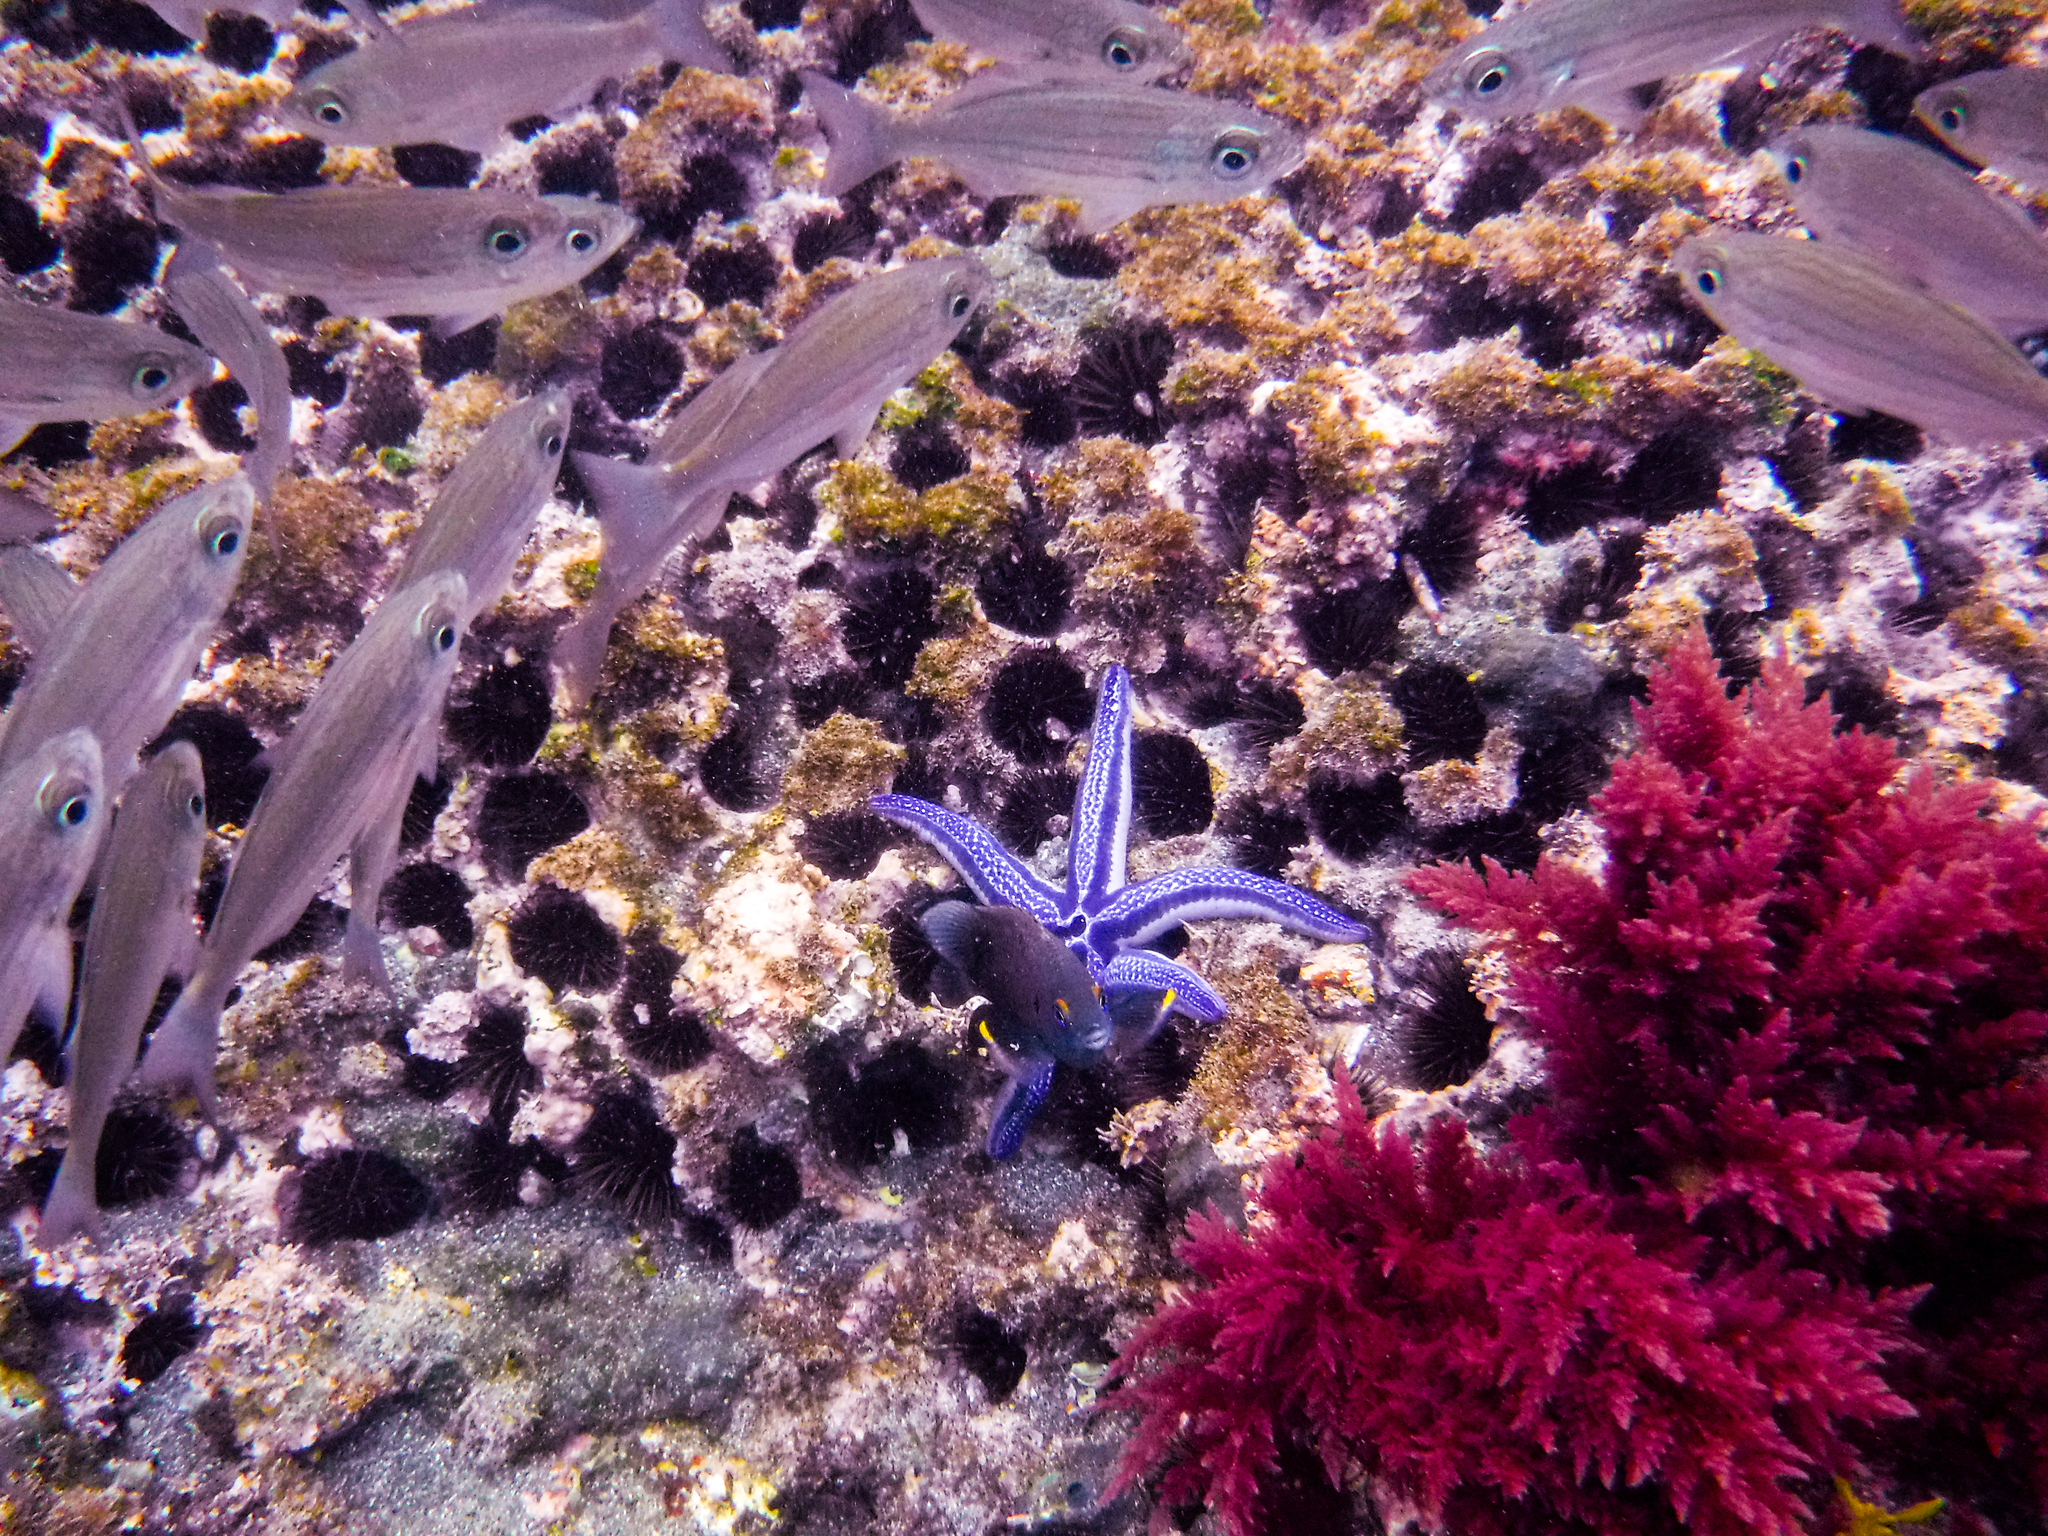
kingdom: Animalia
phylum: Echinodermata
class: Asteroidea
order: Valvatida
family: Ophidiasteridae
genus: Phataria
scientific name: Phataria unifascialis
